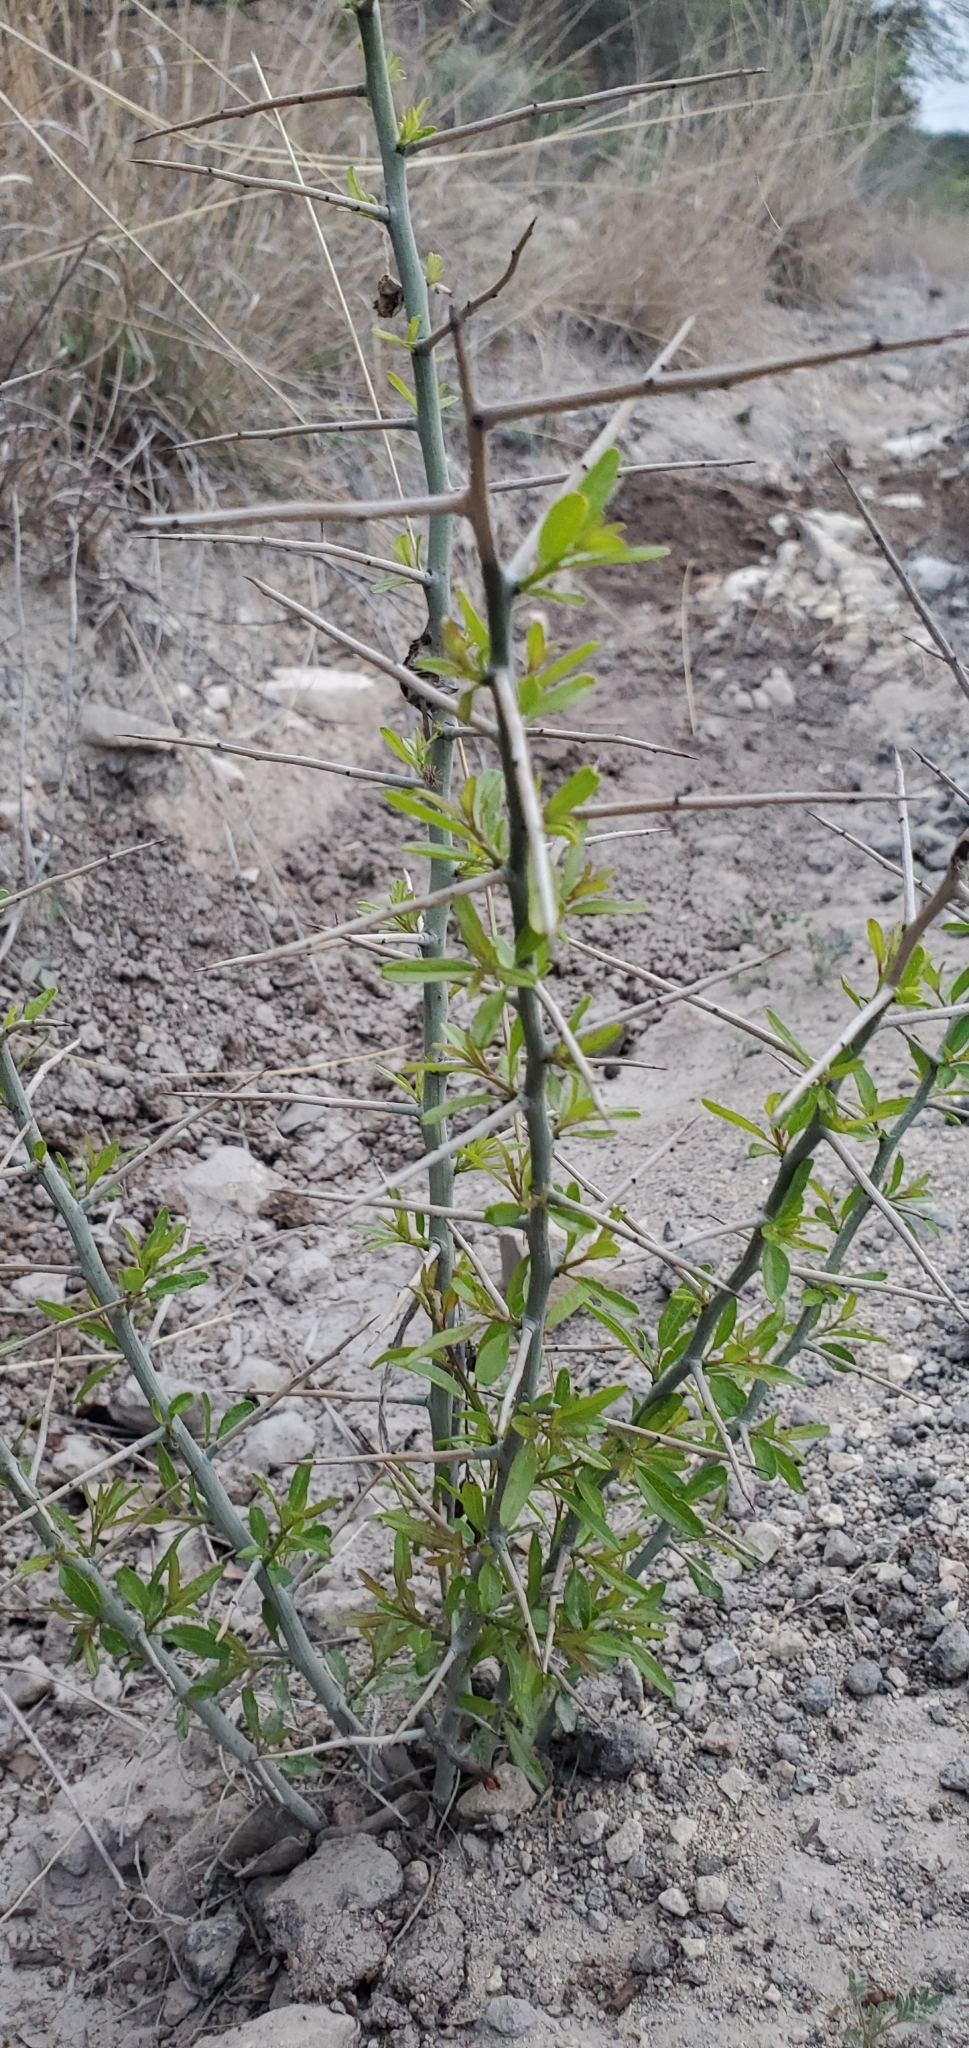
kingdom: Plantae
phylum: Tracheophyta
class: Magnoliopsida
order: Rosales
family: Rhamnaceae
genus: Sarcomphalus
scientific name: Sarcomphalus obtusifolius
